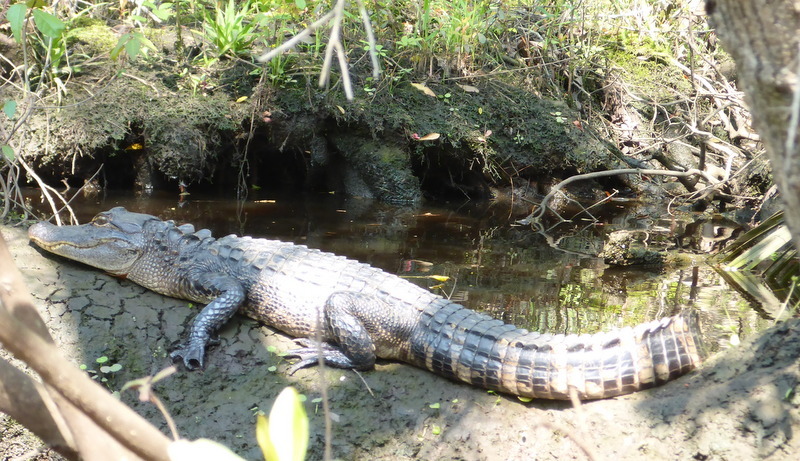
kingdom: Animalia
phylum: Chordata
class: Crocodylia
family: Alligatoridae
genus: Alligator
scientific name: Alligator mississippiensis
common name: American alligator
